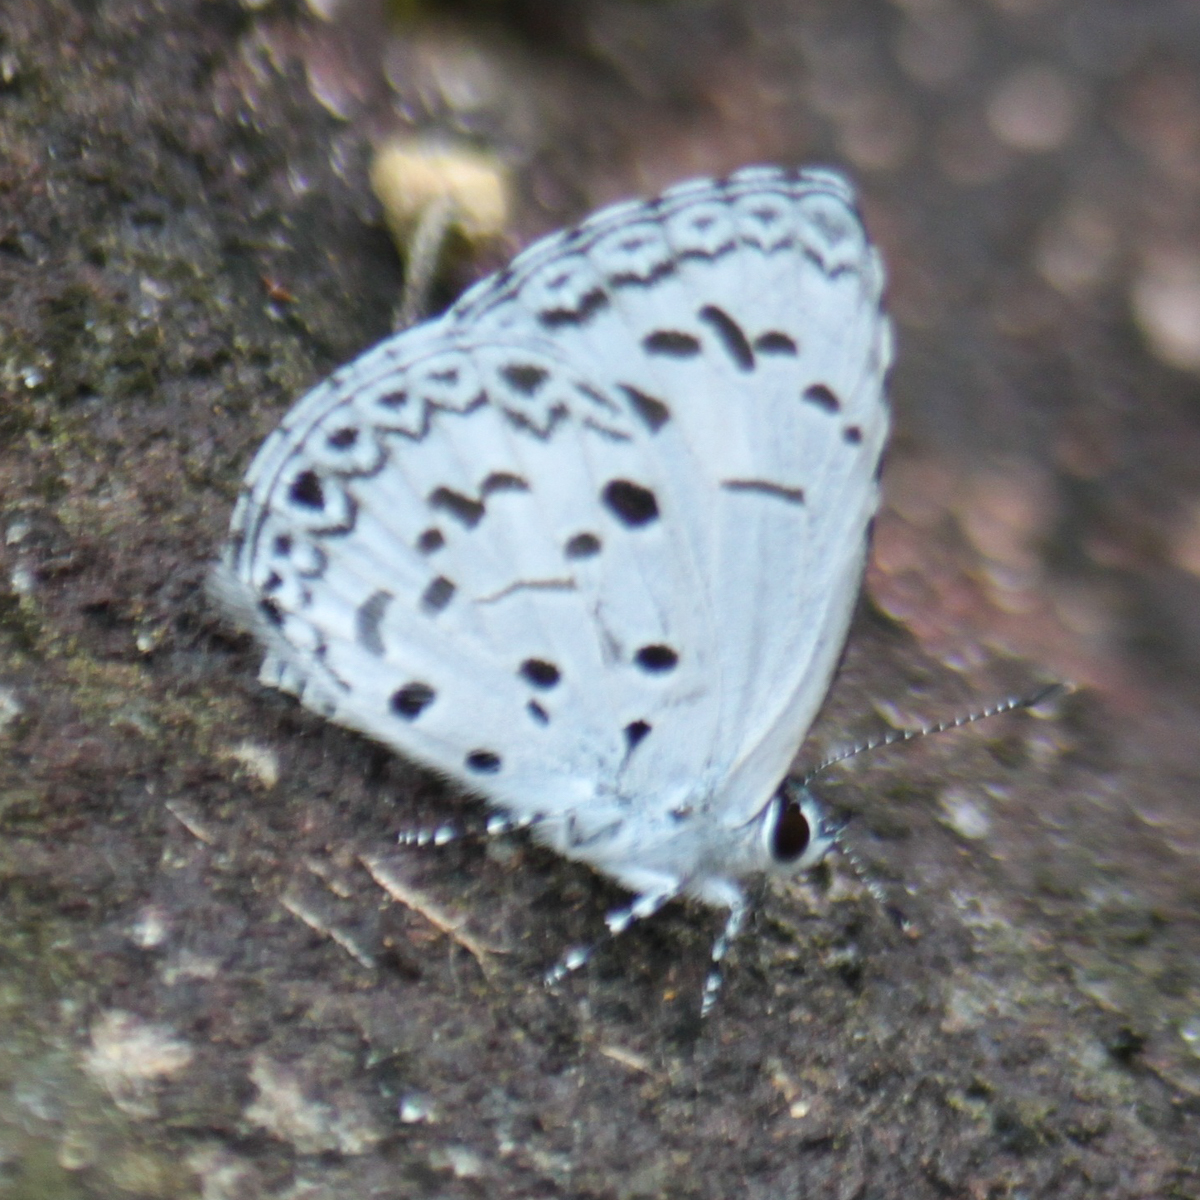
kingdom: Animalia
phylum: Arthropoda
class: Insecta
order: Lepidoptera
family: Lycaenidae
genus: Acytolepis
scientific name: Acytolepis puspa
